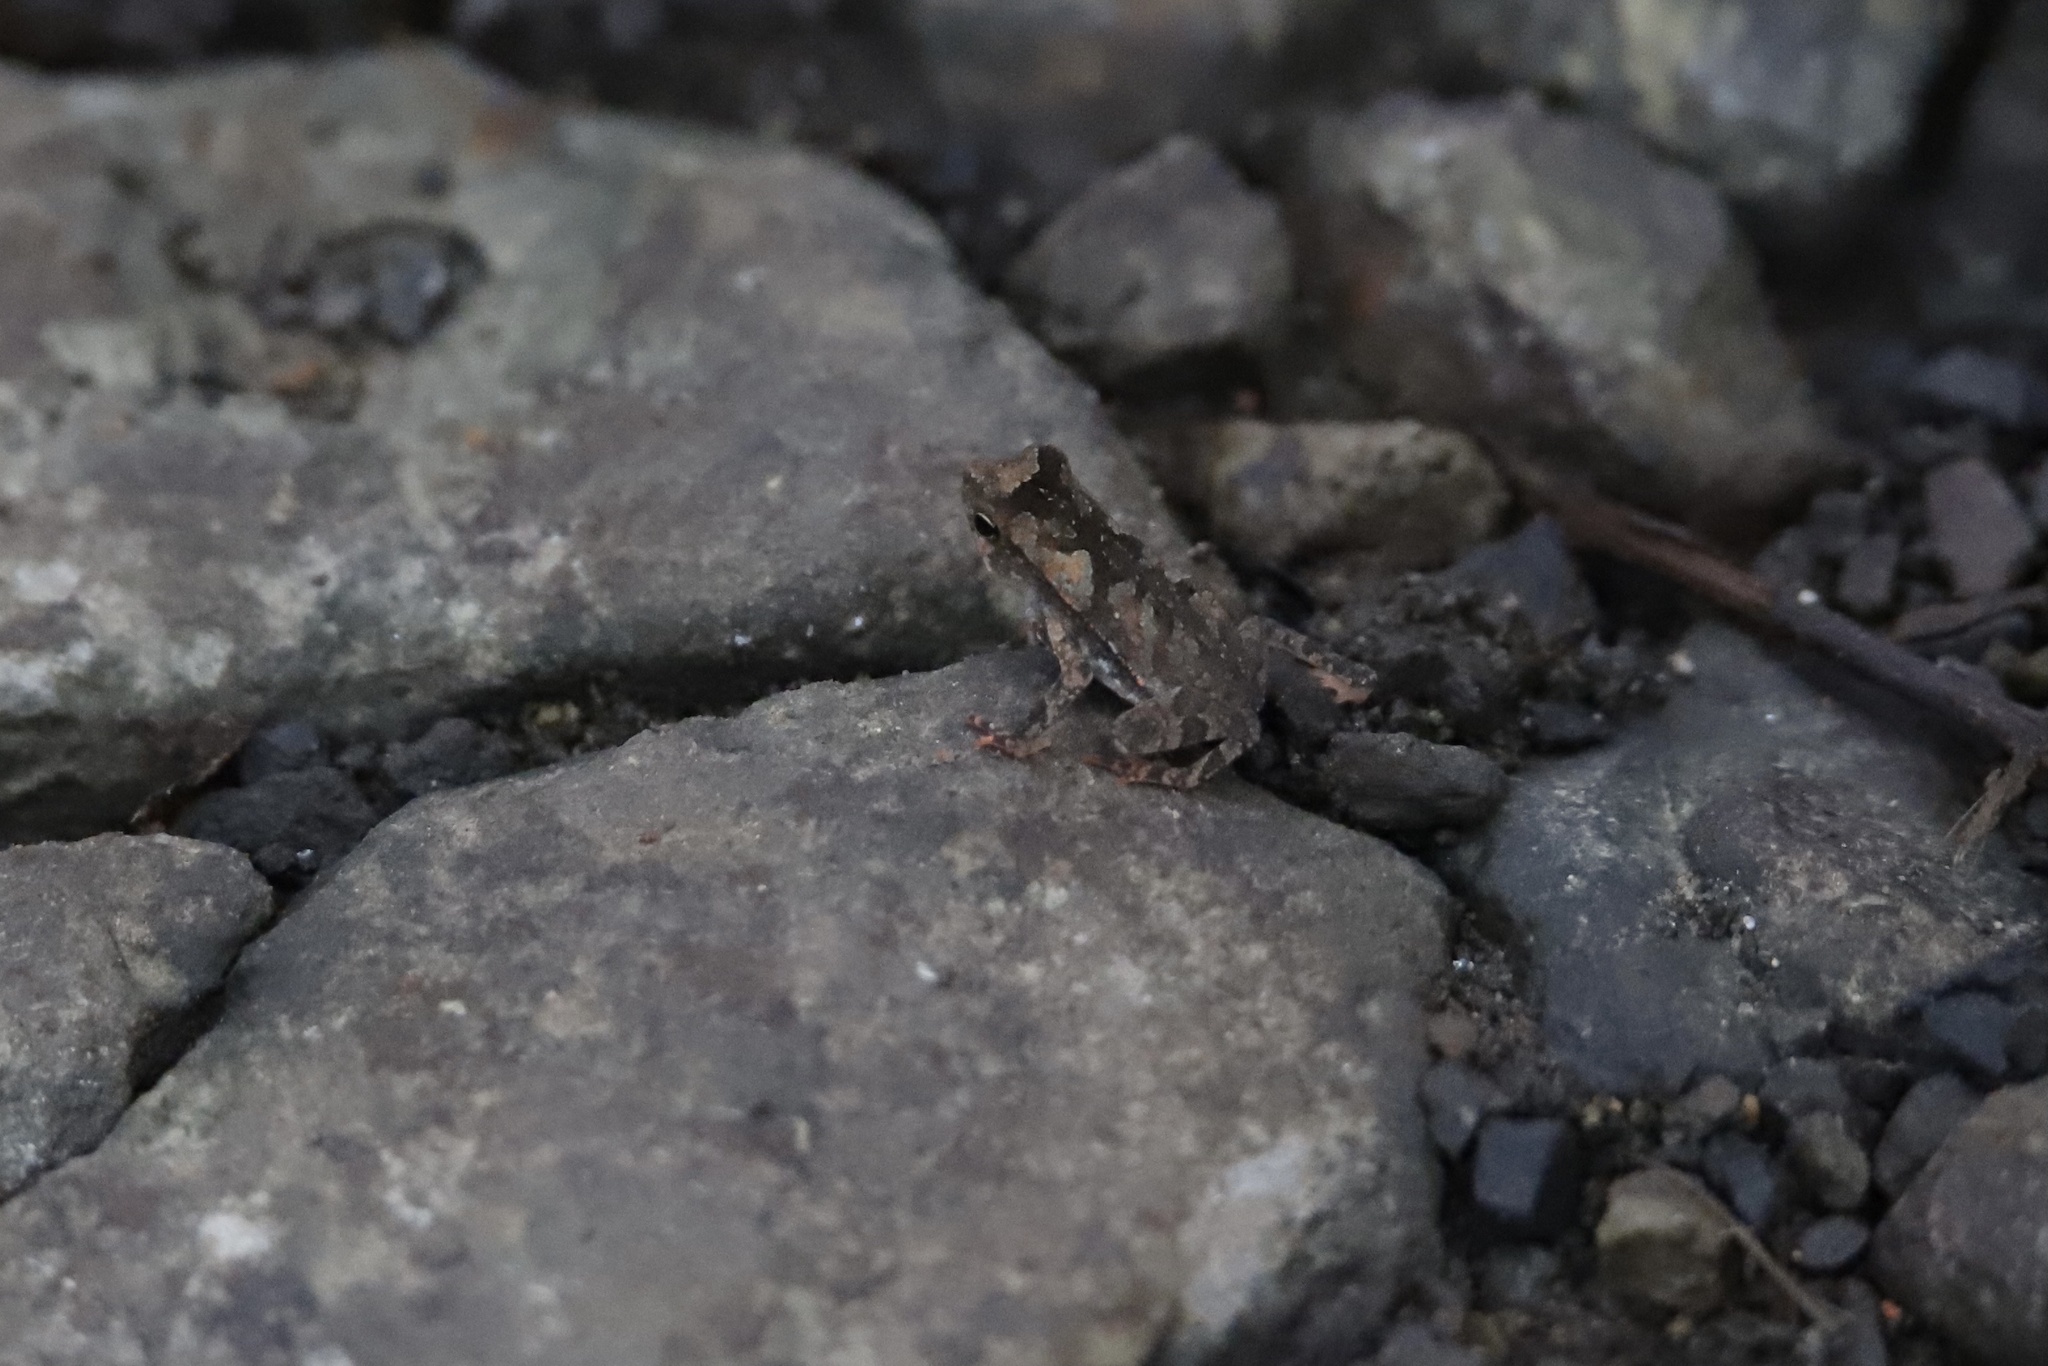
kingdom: Animalia
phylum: Chordata
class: Amphibia
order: Anura
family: Bufonidae
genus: Rhinella
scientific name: Rhinella alata
